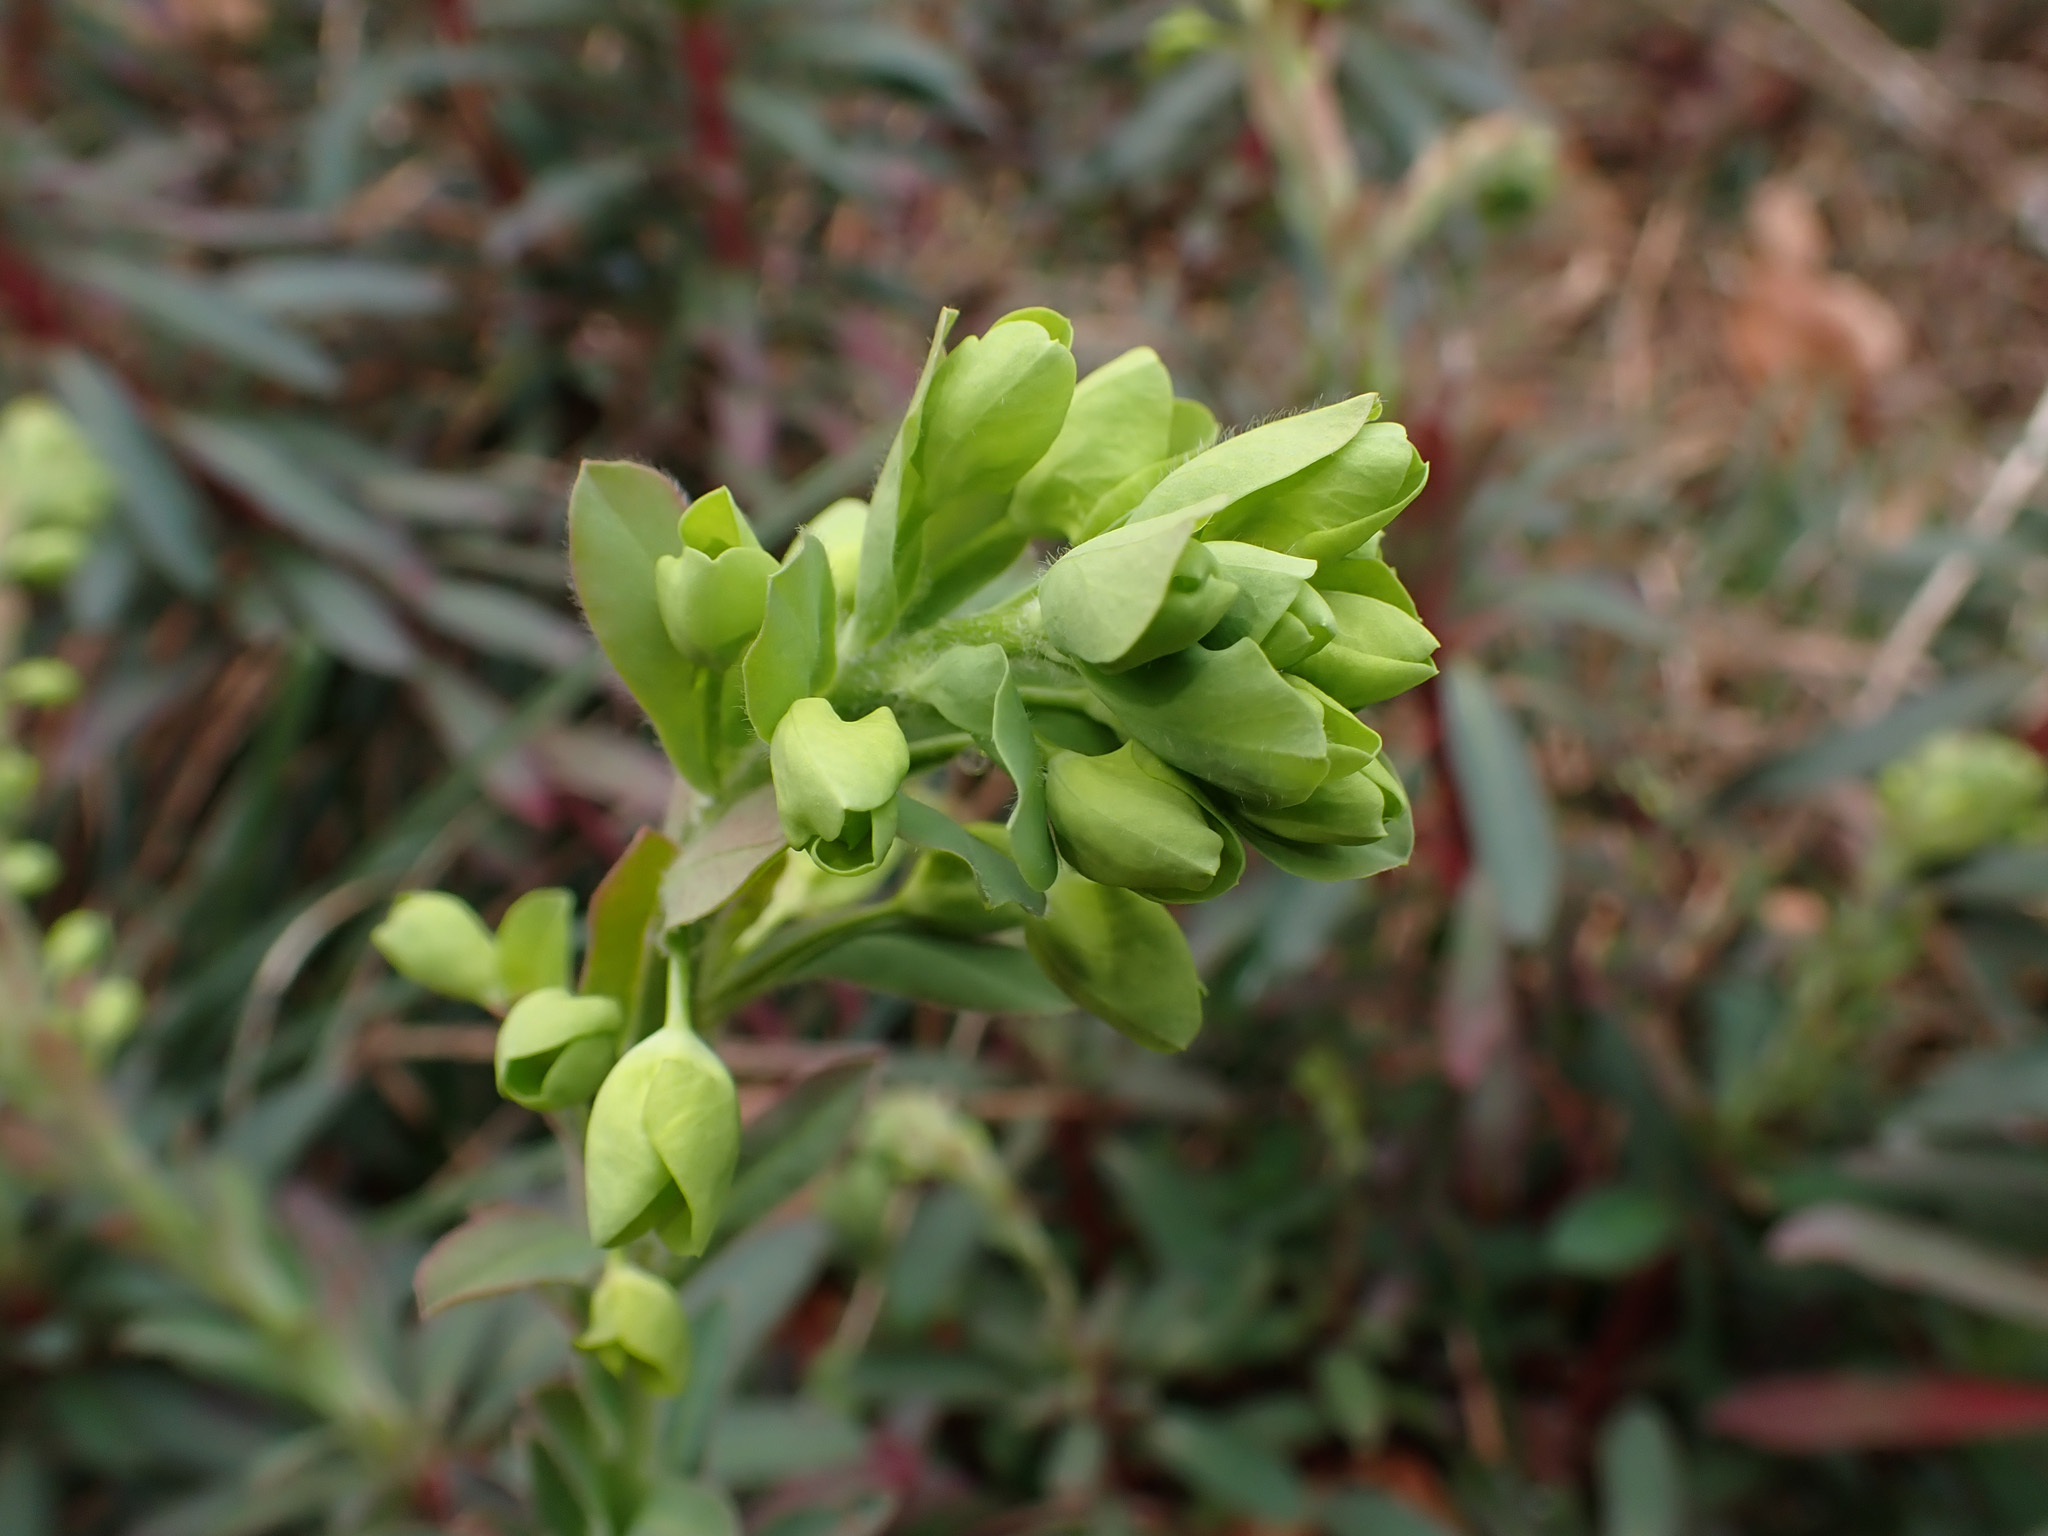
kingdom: Plantae
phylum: Tracheophyta
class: Magnoliopsida
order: Malpighiales
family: Euphorbiaceae
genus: Euphorbia
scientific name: Euphorbia amygdaloides
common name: Wood spurge
